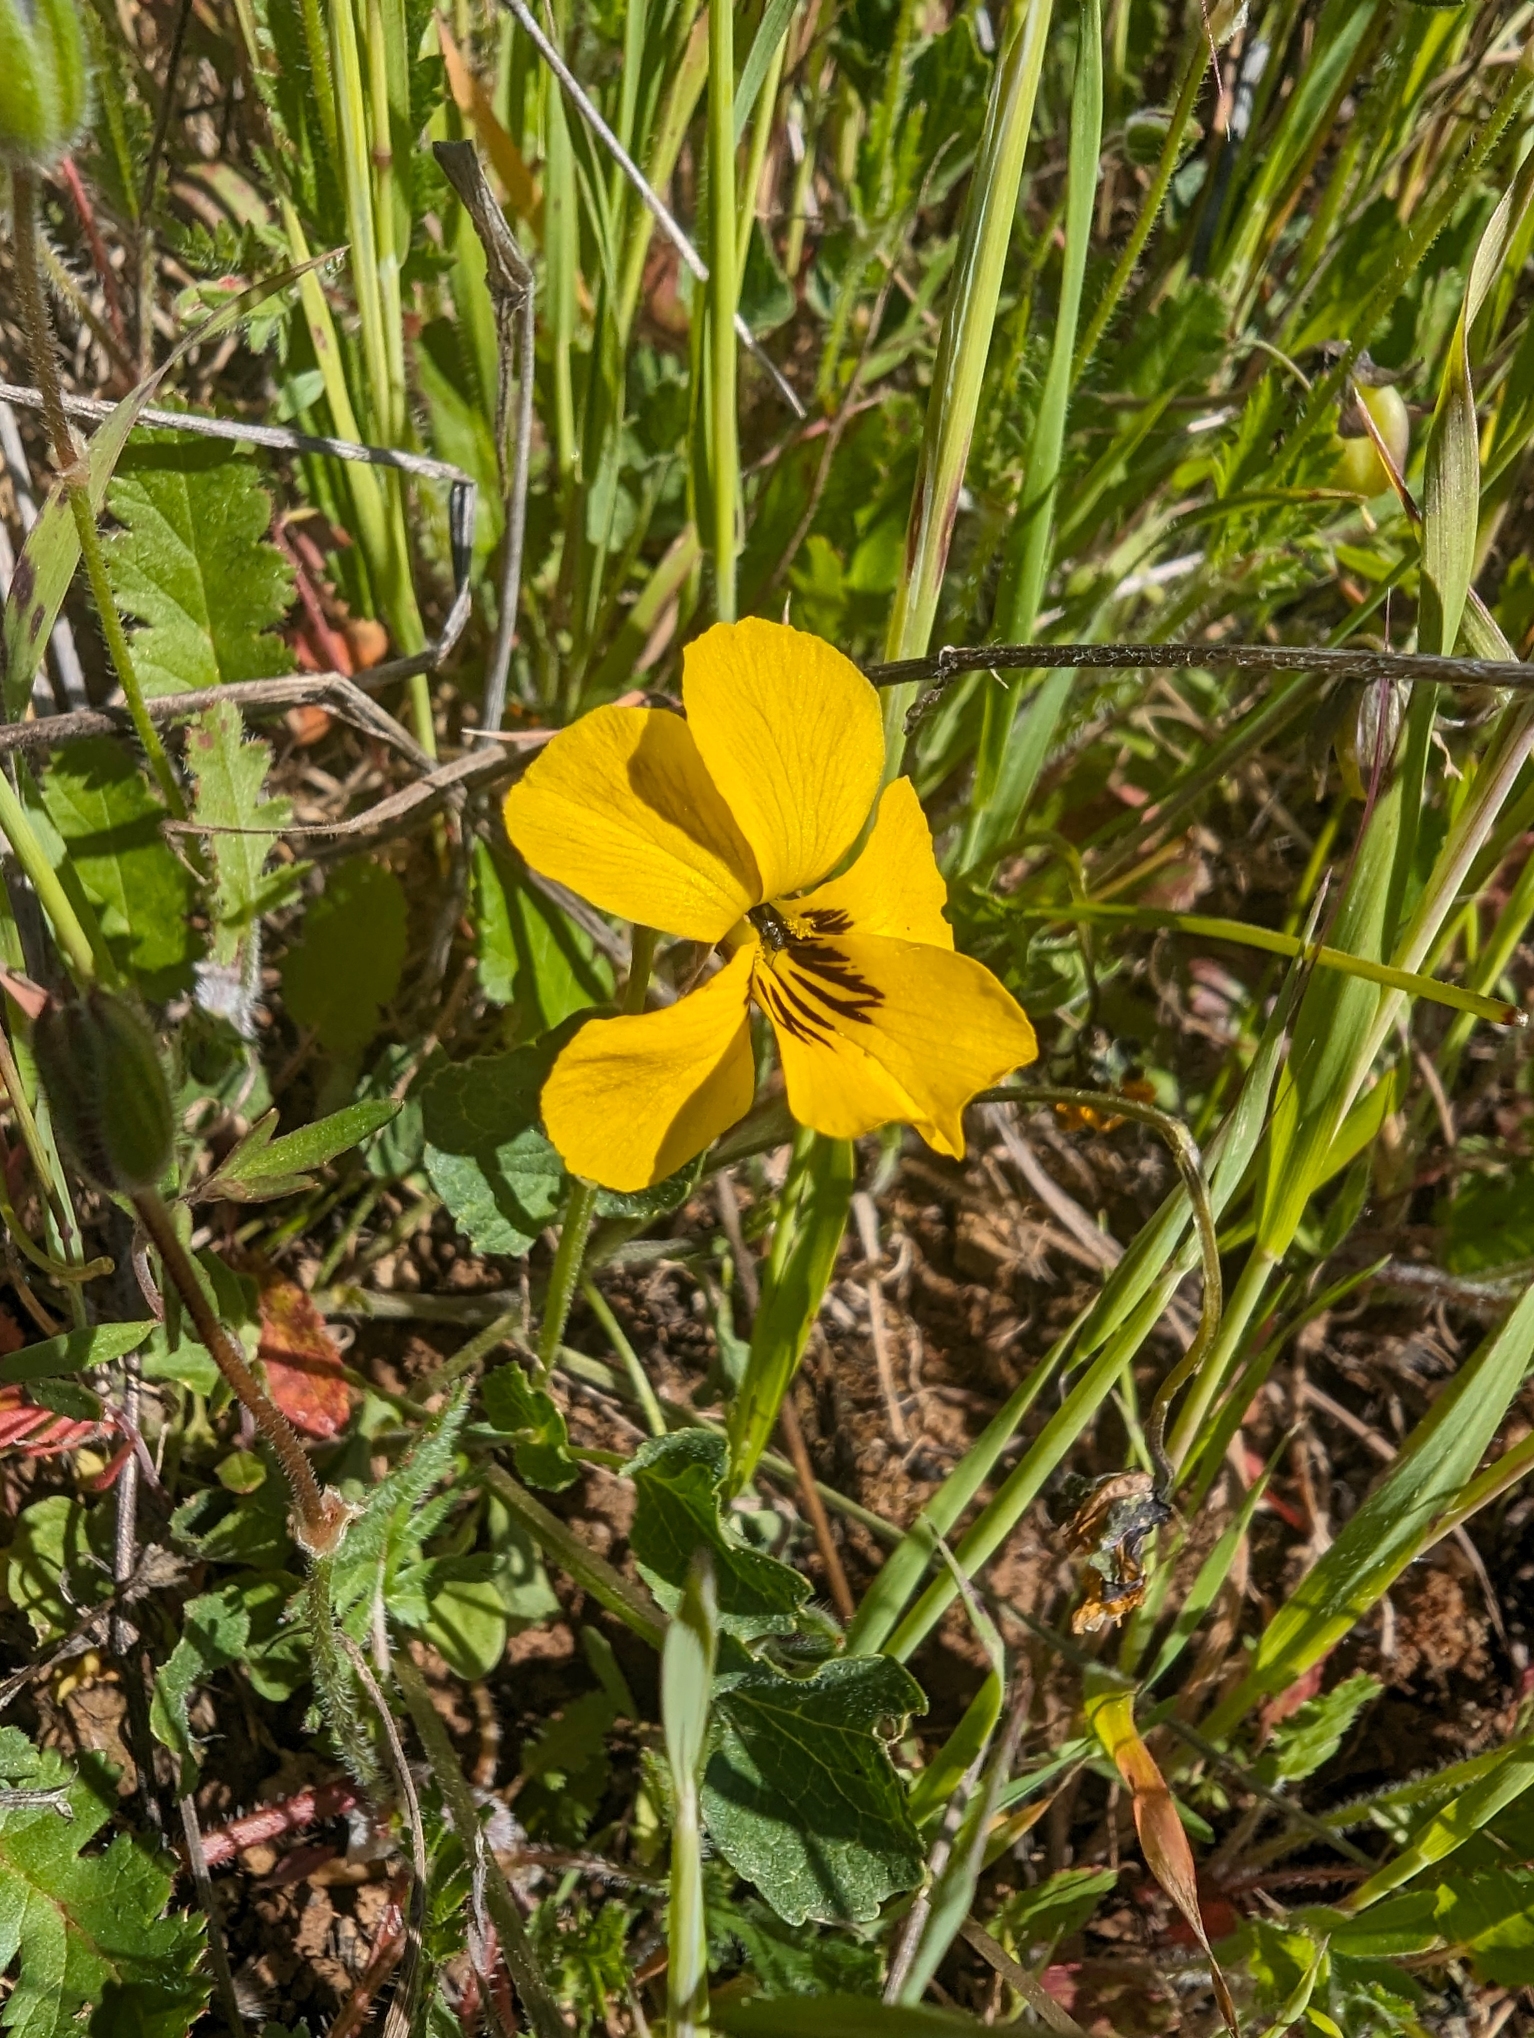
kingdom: Plantae
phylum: Tracheophyta
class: Magnoliopsida
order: Malpighiales
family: Violaceae
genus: Viola
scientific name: Viola pedunculata
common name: California golden violet
